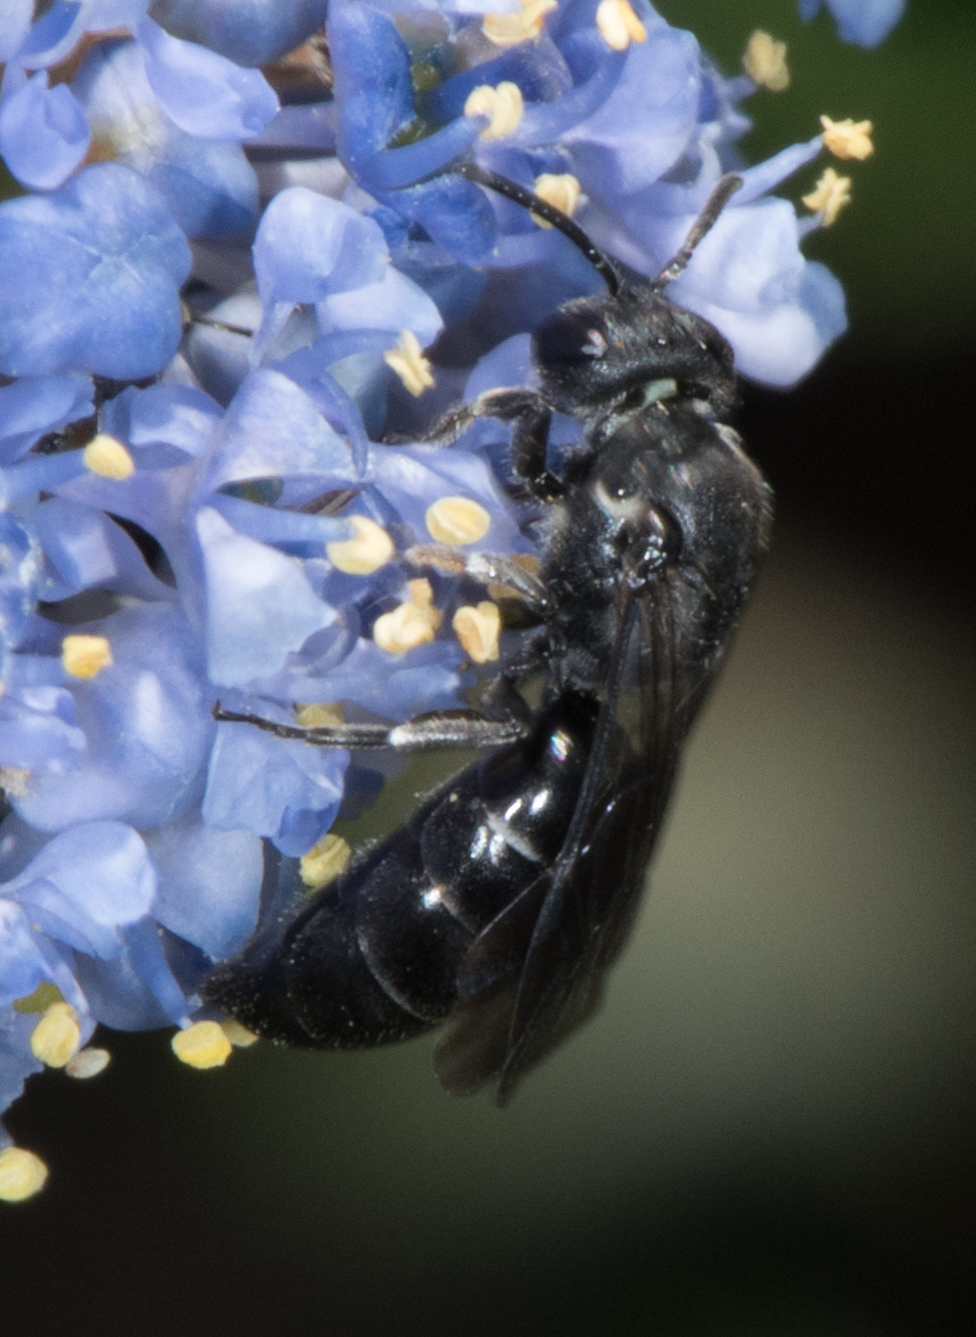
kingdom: Animalia
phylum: Arthropoda
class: Insecta
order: Hymenoptera
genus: Cephalylaeus
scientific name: Cephalylaeus
